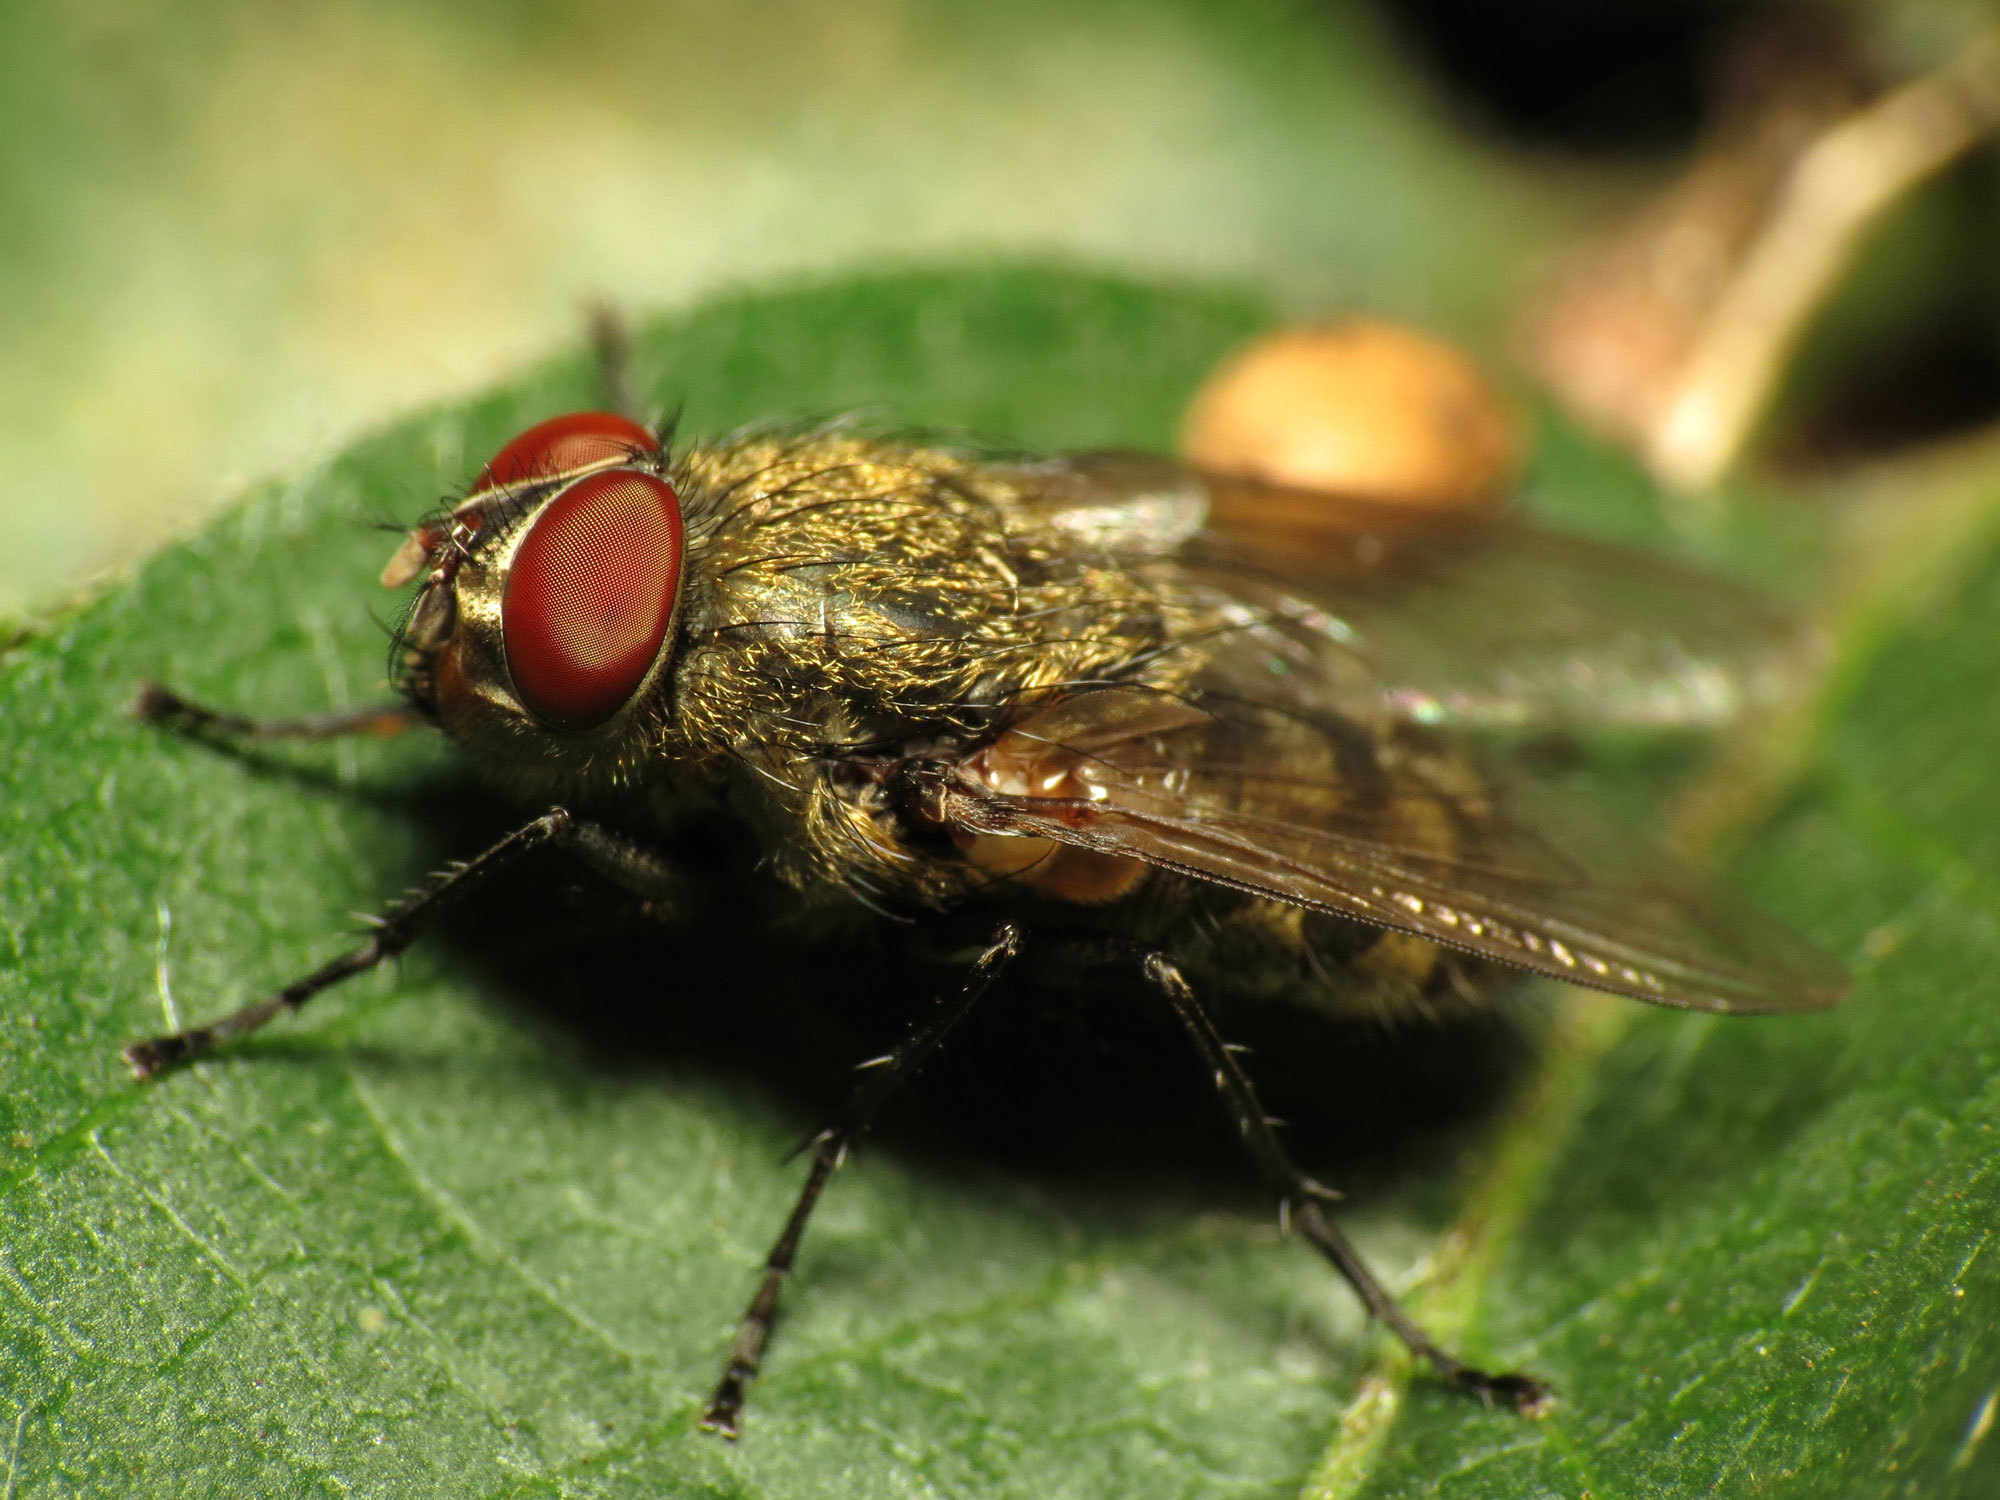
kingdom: Animalia
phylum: Arthropoda
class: Insecta
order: Diptera
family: Polleniidae
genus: Pollenia
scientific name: Pollenia
